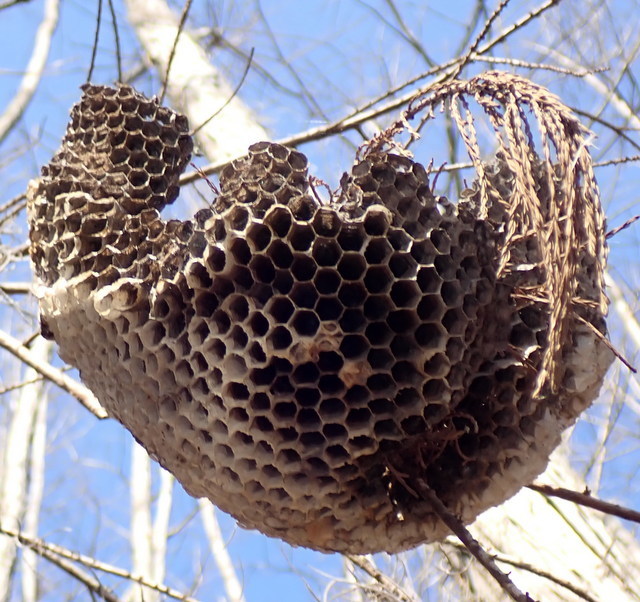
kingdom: Animalia
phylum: Arthropoda
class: Insecta
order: Hymenoptera
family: Vespidae
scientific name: Vespidae
